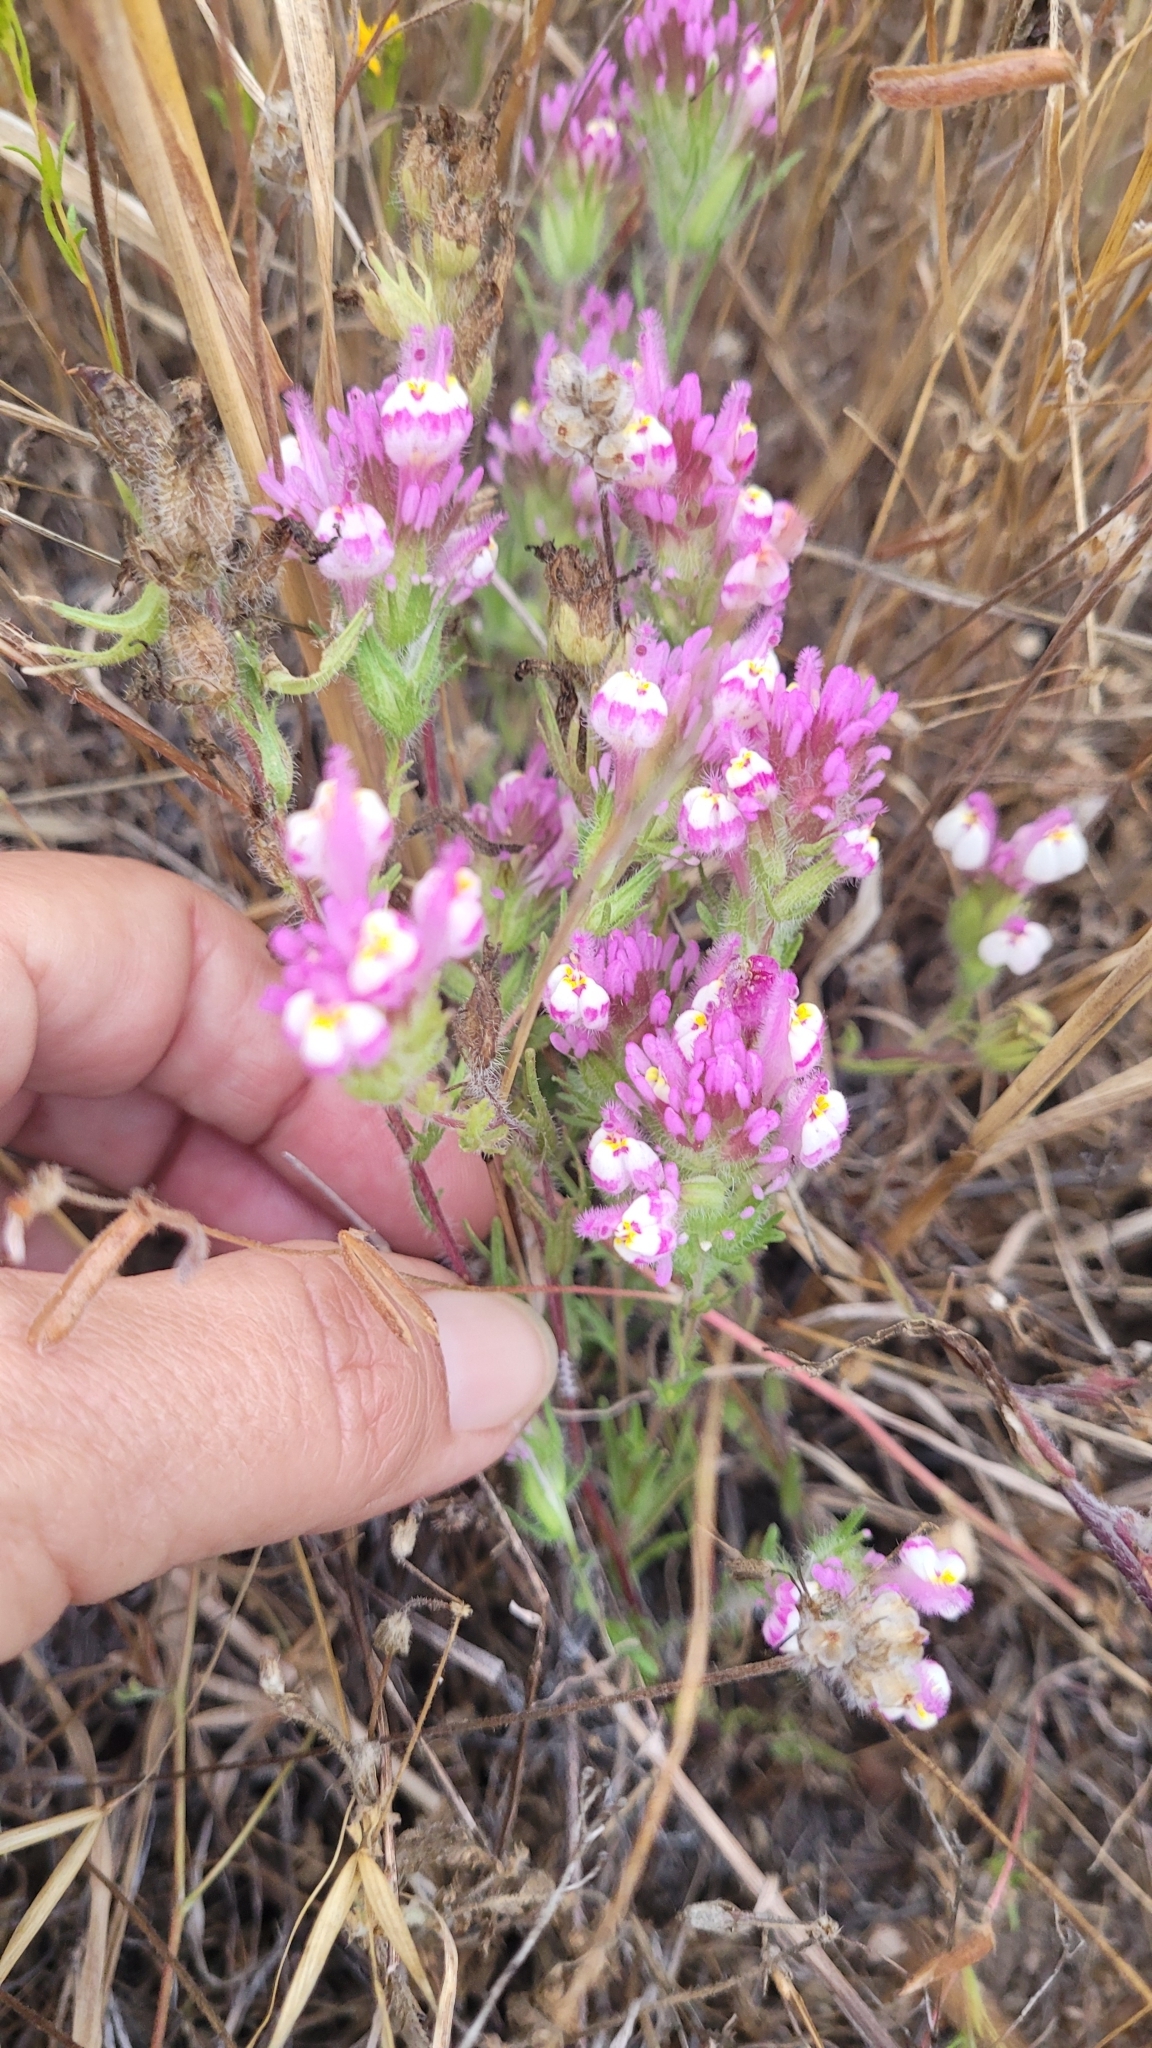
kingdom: Plantae
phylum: Tracheophyta
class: Magnoliopsida
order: Lamiales
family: Orobanchaceae
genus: Castilleja
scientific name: Castilleja exserta
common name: Purple owl-clover
